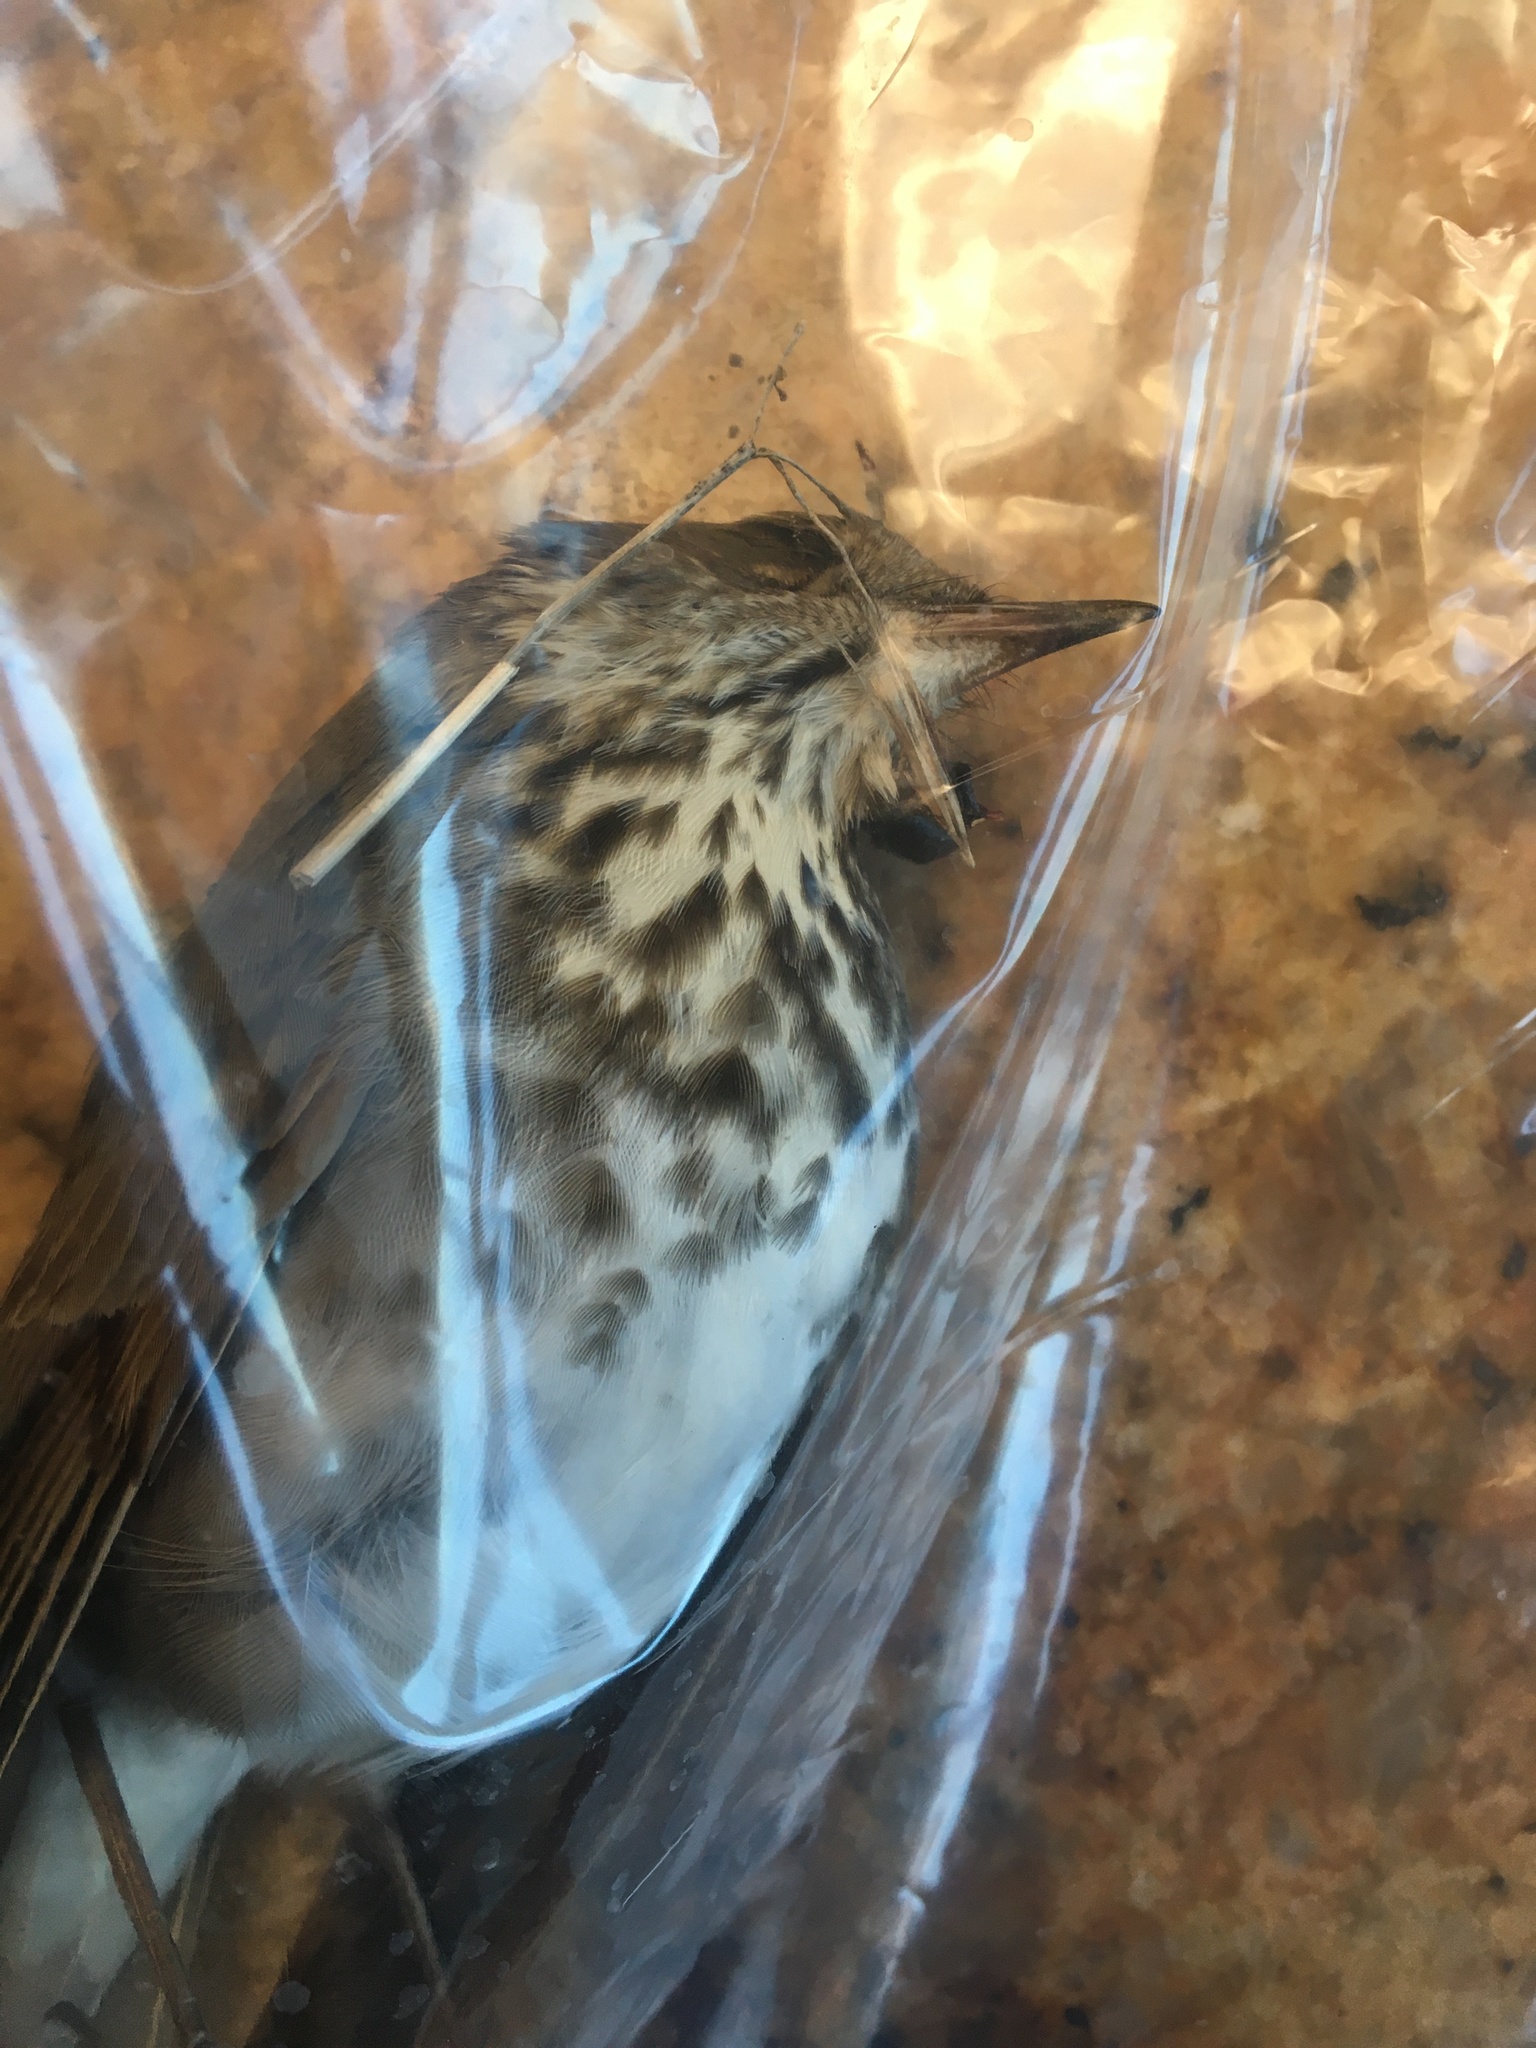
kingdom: Animalia
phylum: Chordata
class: Aves
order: Passeriformes
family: Turdidae
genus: Catharus
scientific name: Catharus guttatus
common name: Hermit thrush
